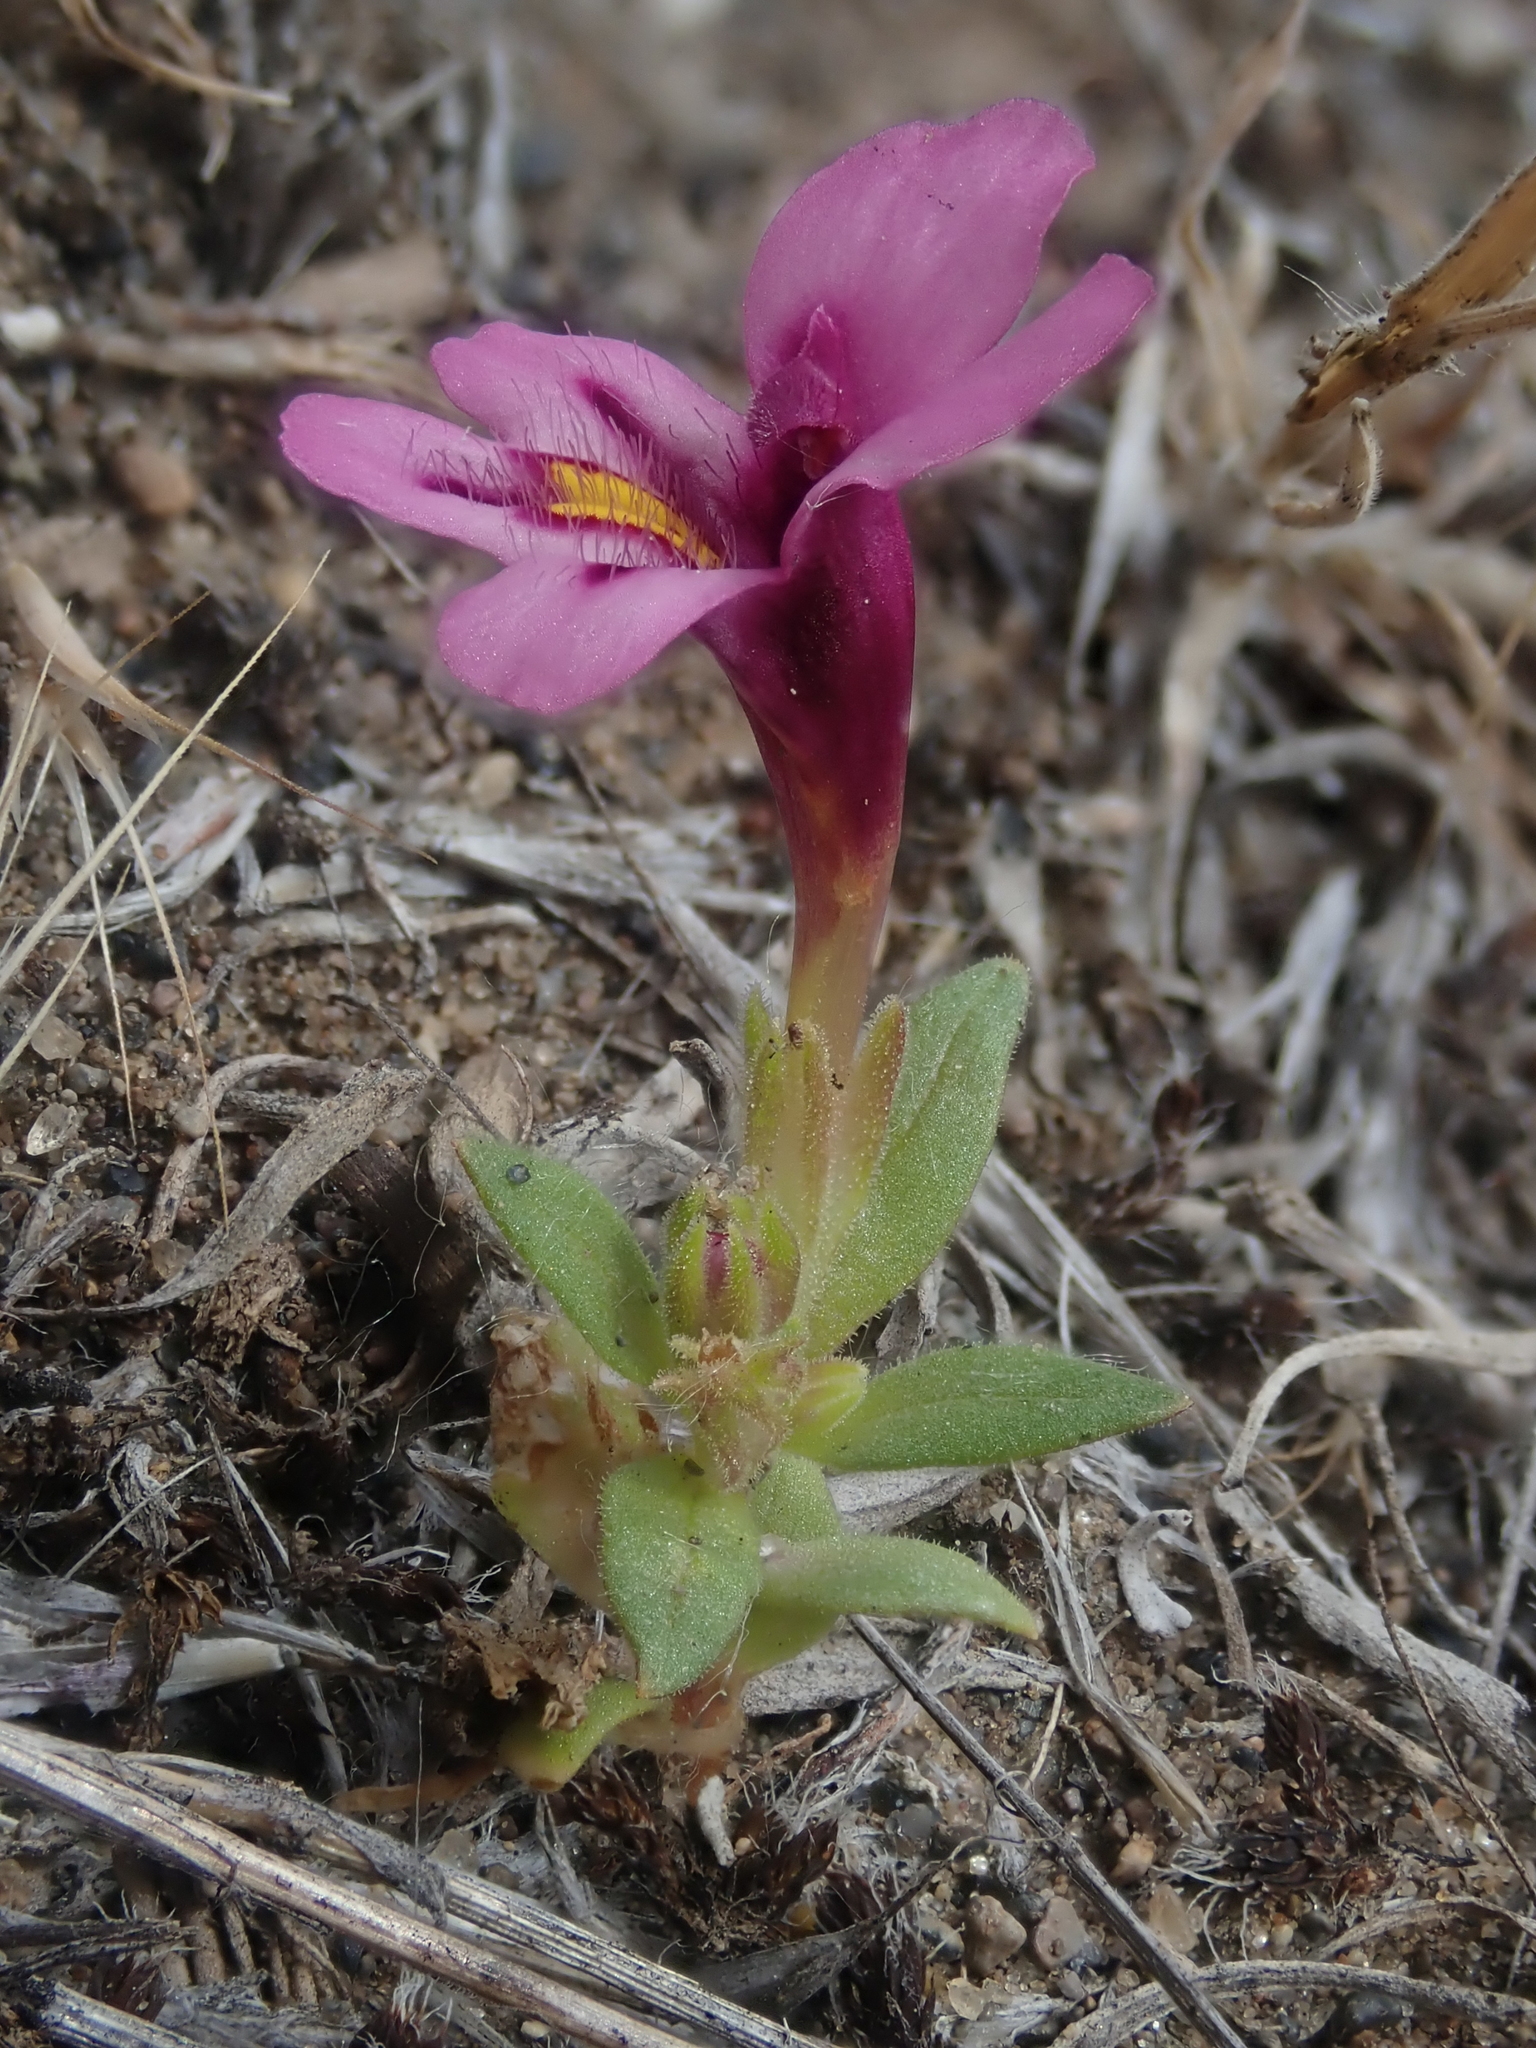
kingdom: Plantae
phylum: Tracheophyta
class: Magnoliopsida
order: Lamiales
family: Phrymaceae
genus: Diplacus
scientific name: Diplacus nanus
